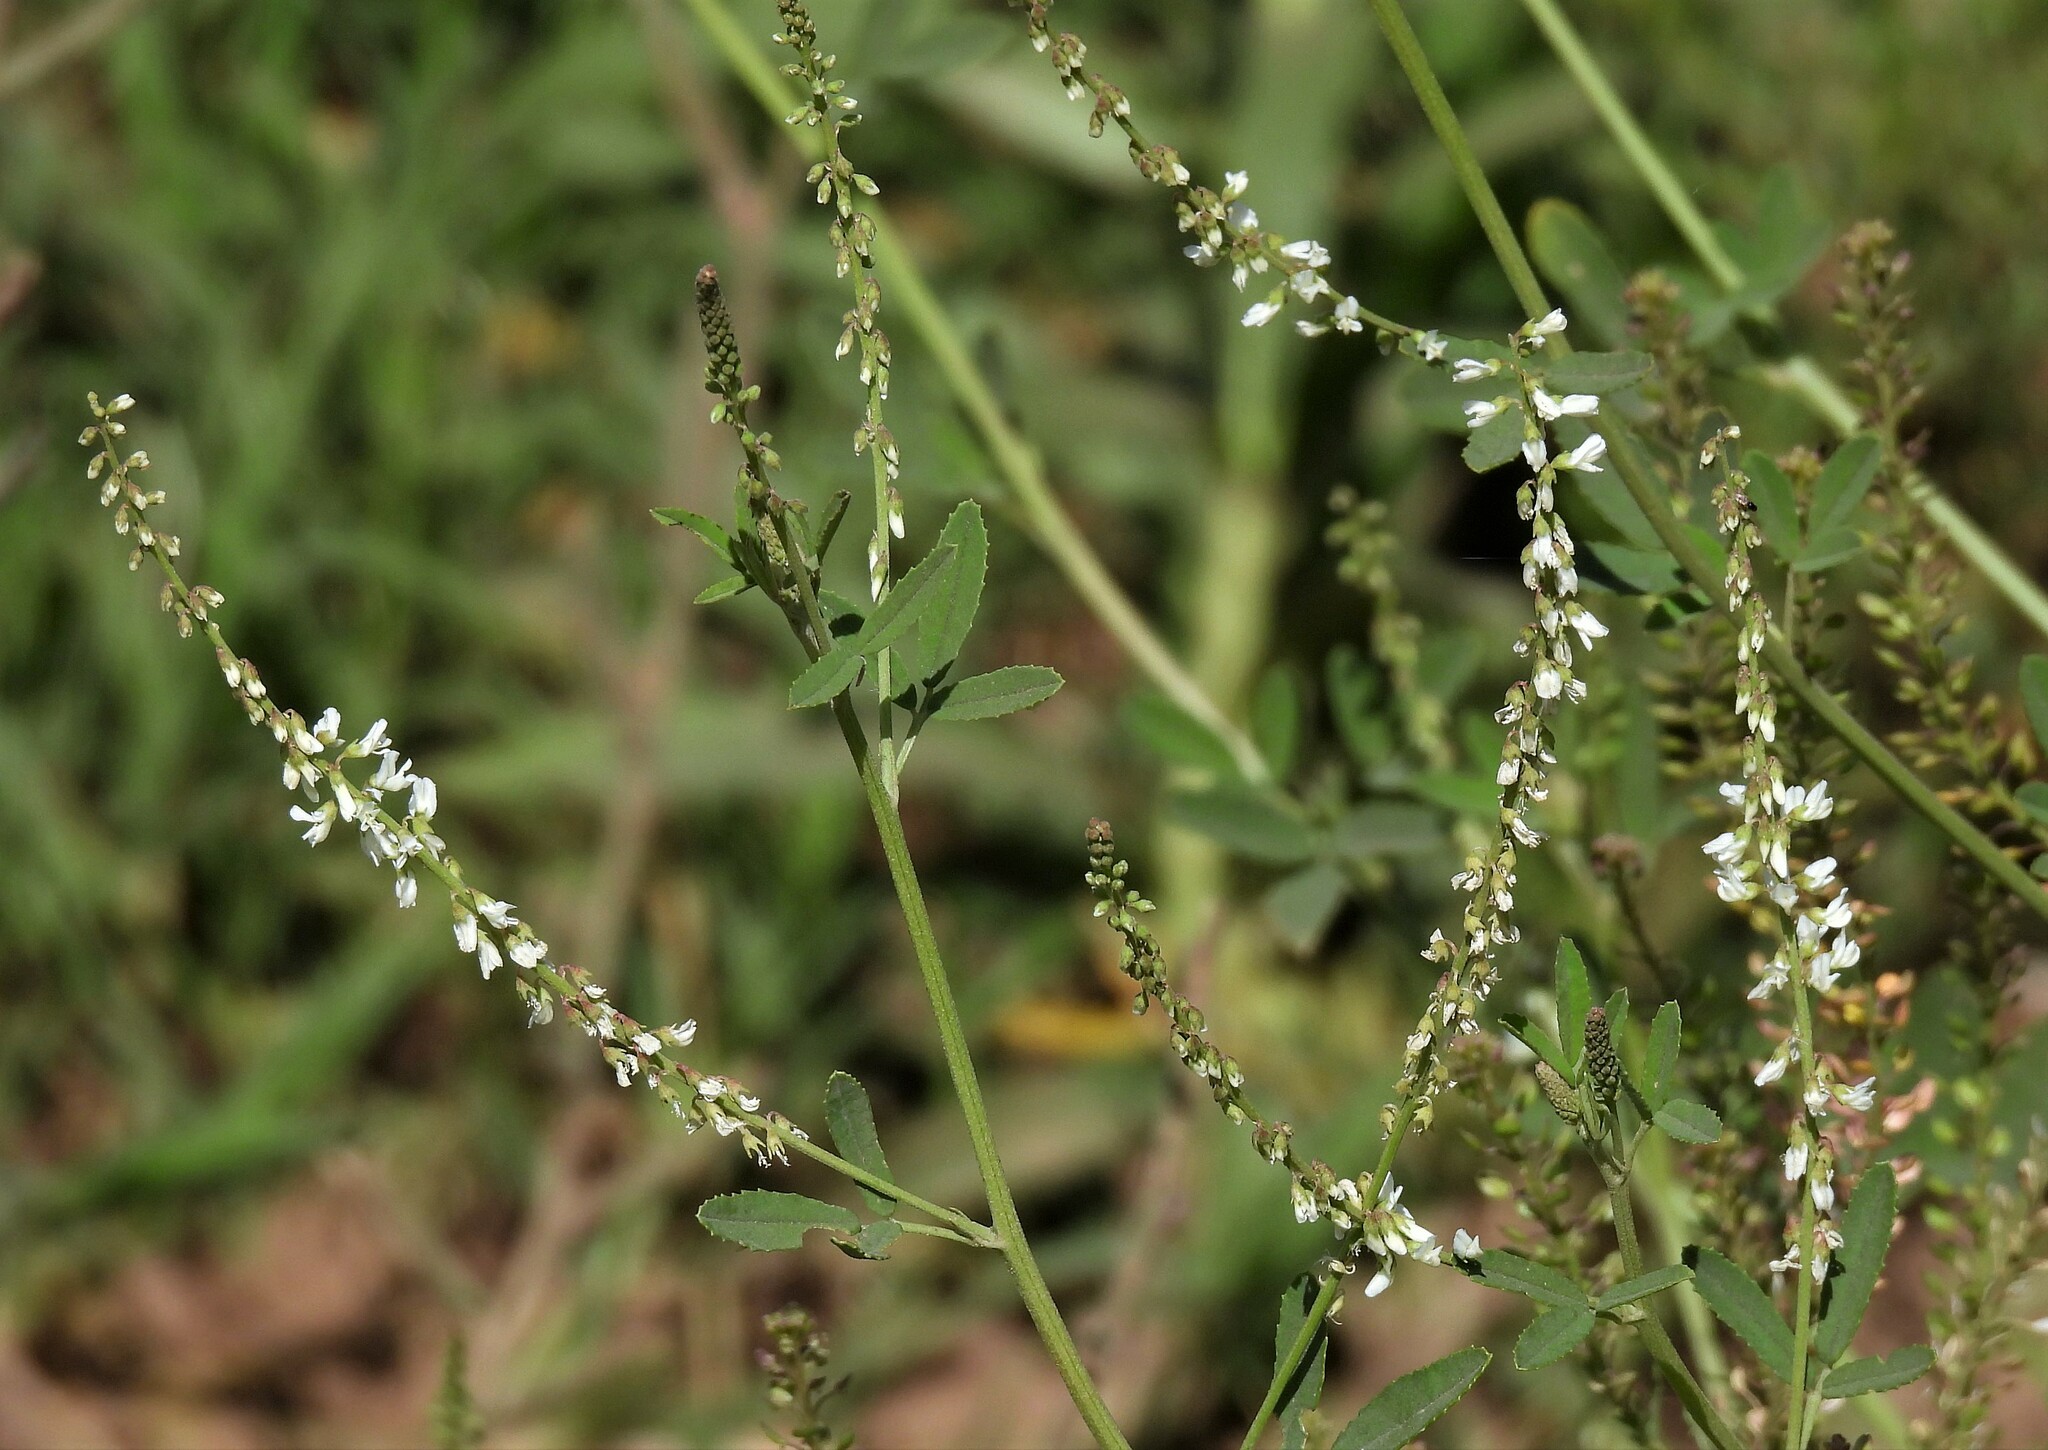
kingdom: Plantae
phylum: Tracheophyta
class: Magnoliopsida
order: Fabales
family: Fabaceae
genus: Melilotus
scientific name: Melilotus albus
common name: White melilot
